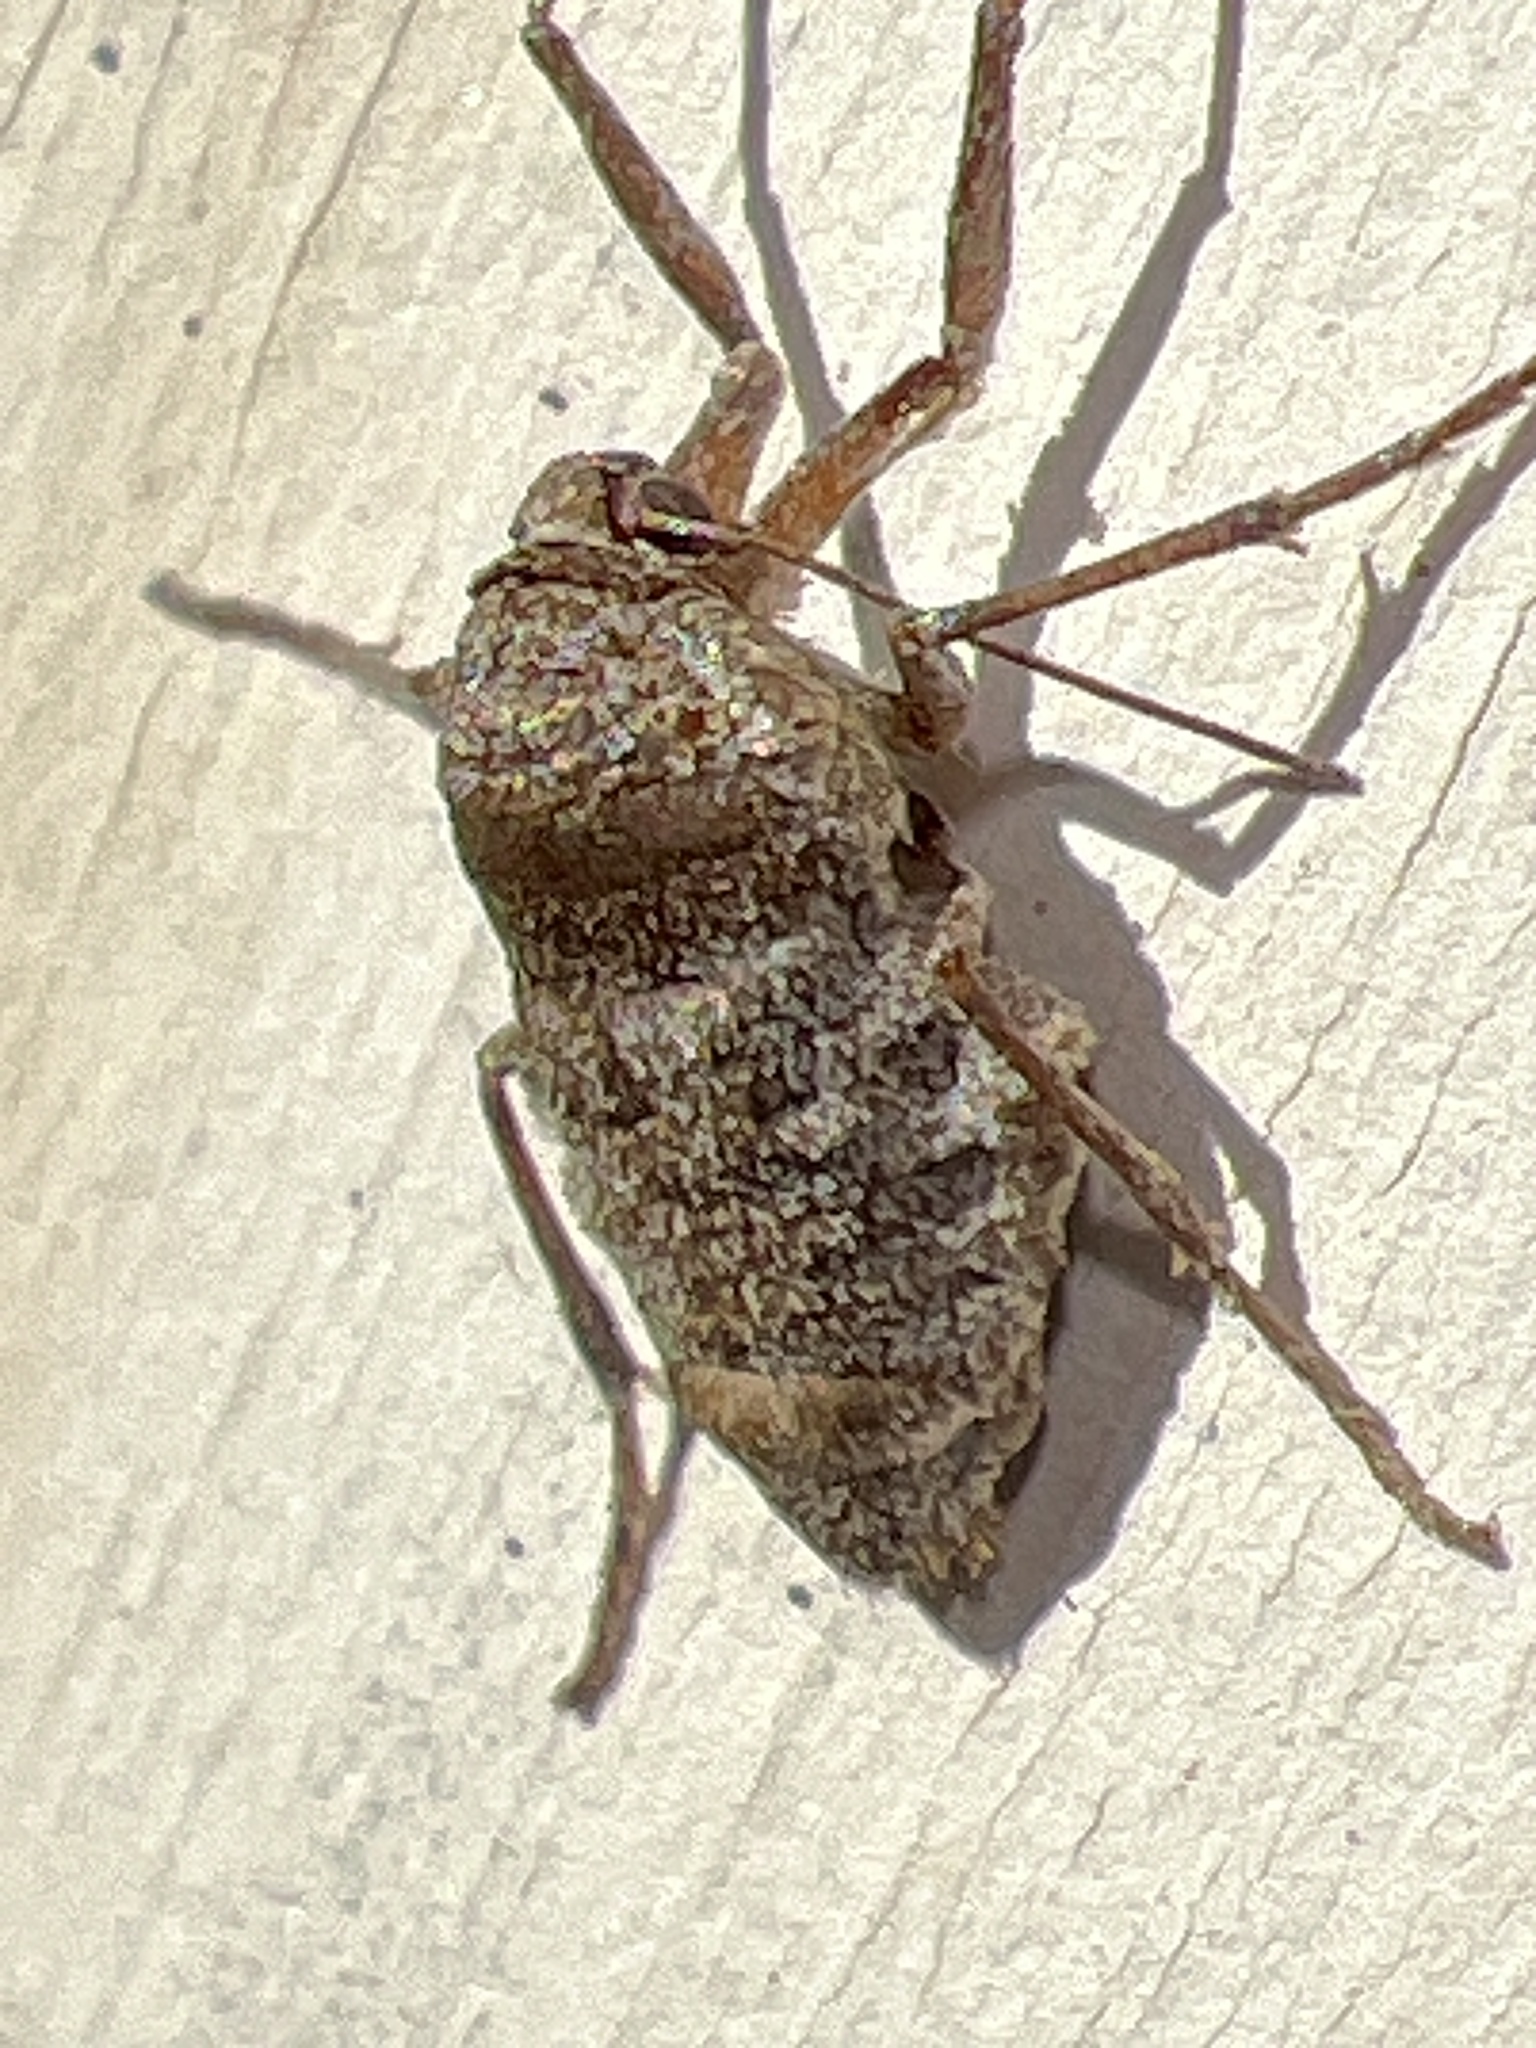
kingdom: Animalia
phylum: Arthropoda
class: Insecta
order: Lepidoptera
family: Geometridae
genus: Alsophila
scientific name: Alsophila pometaria
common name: Fall cankerworm
